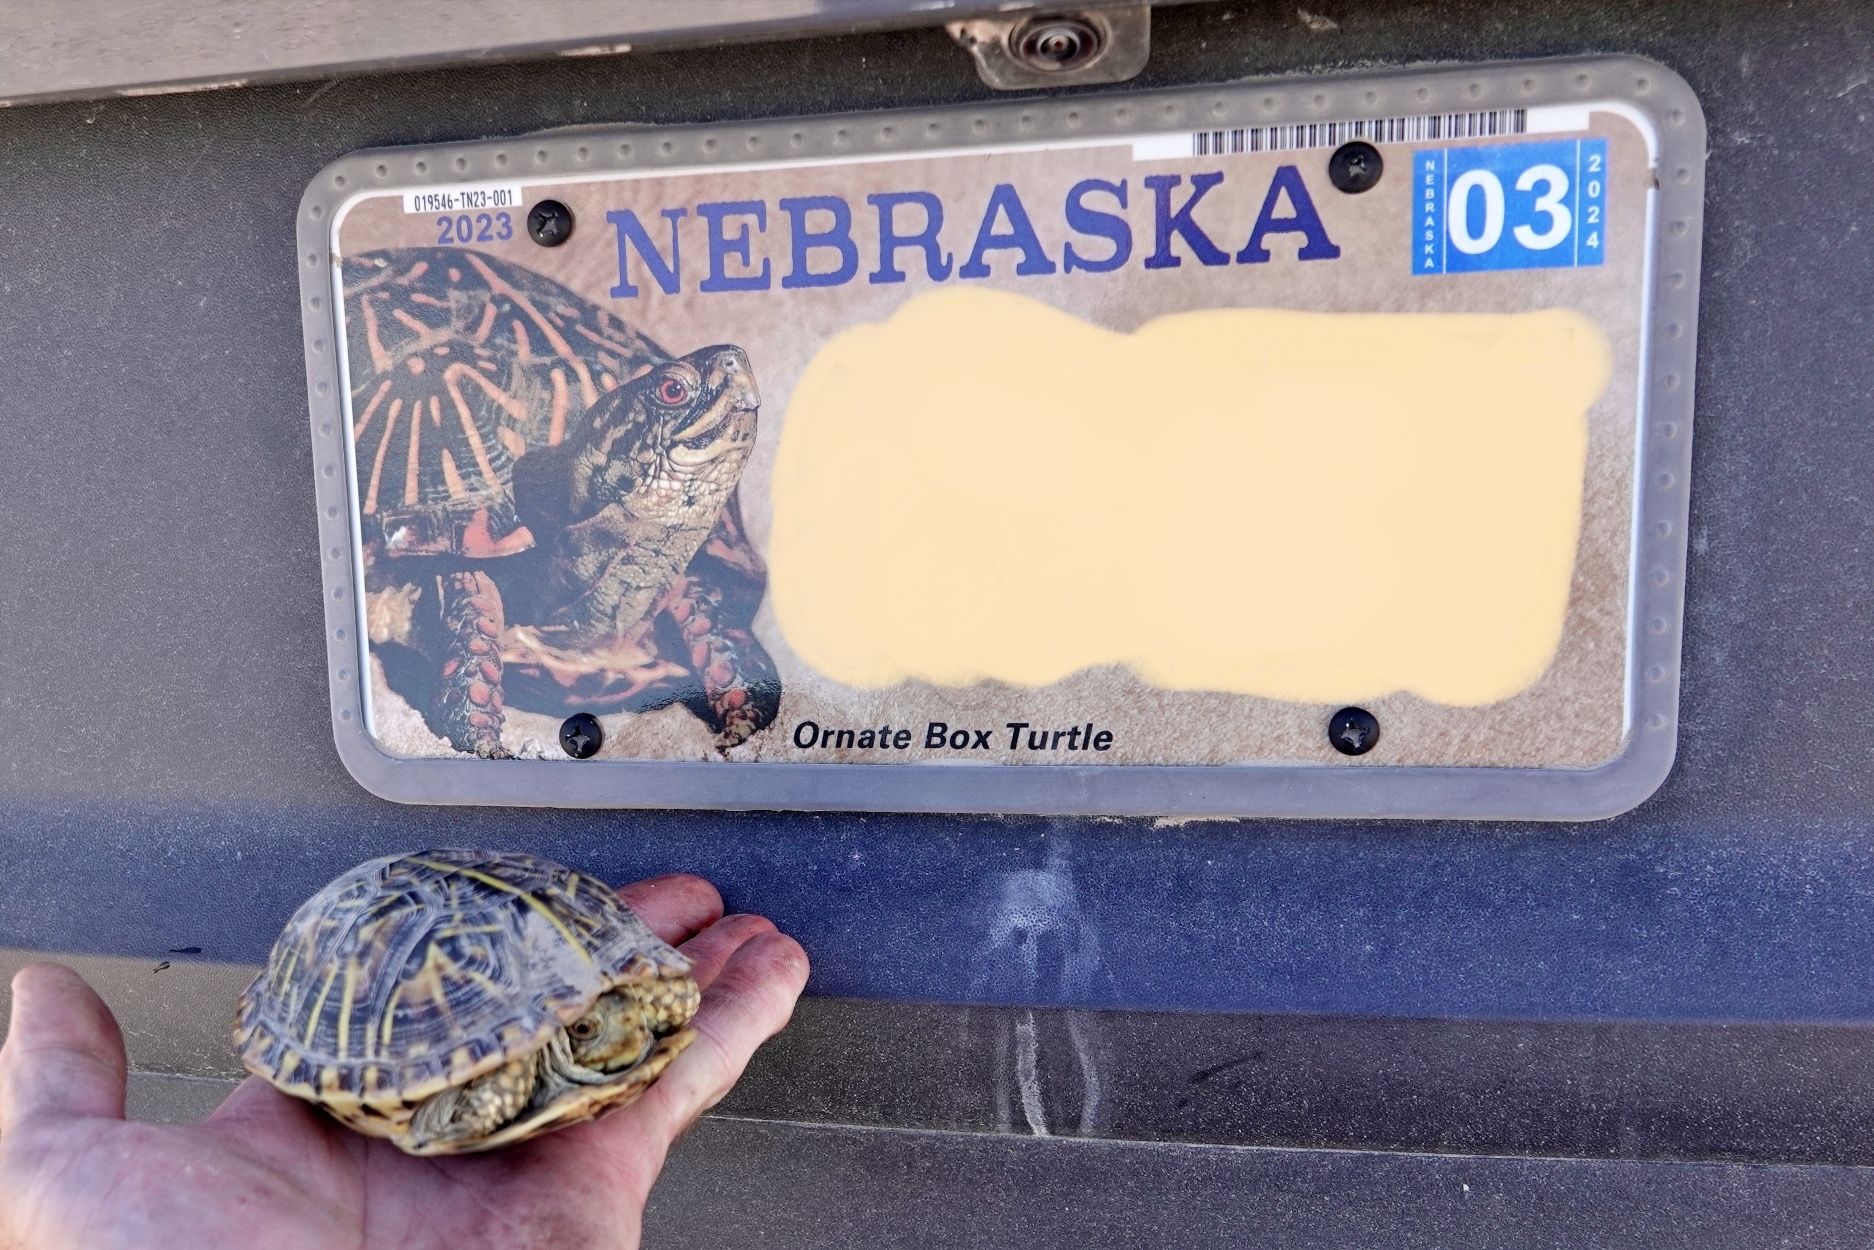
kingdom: Animalia
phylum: Chordata
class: Testudines
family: Emydidae
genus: Terrapene
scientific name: Terrapene ornata
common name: Western box turtle
